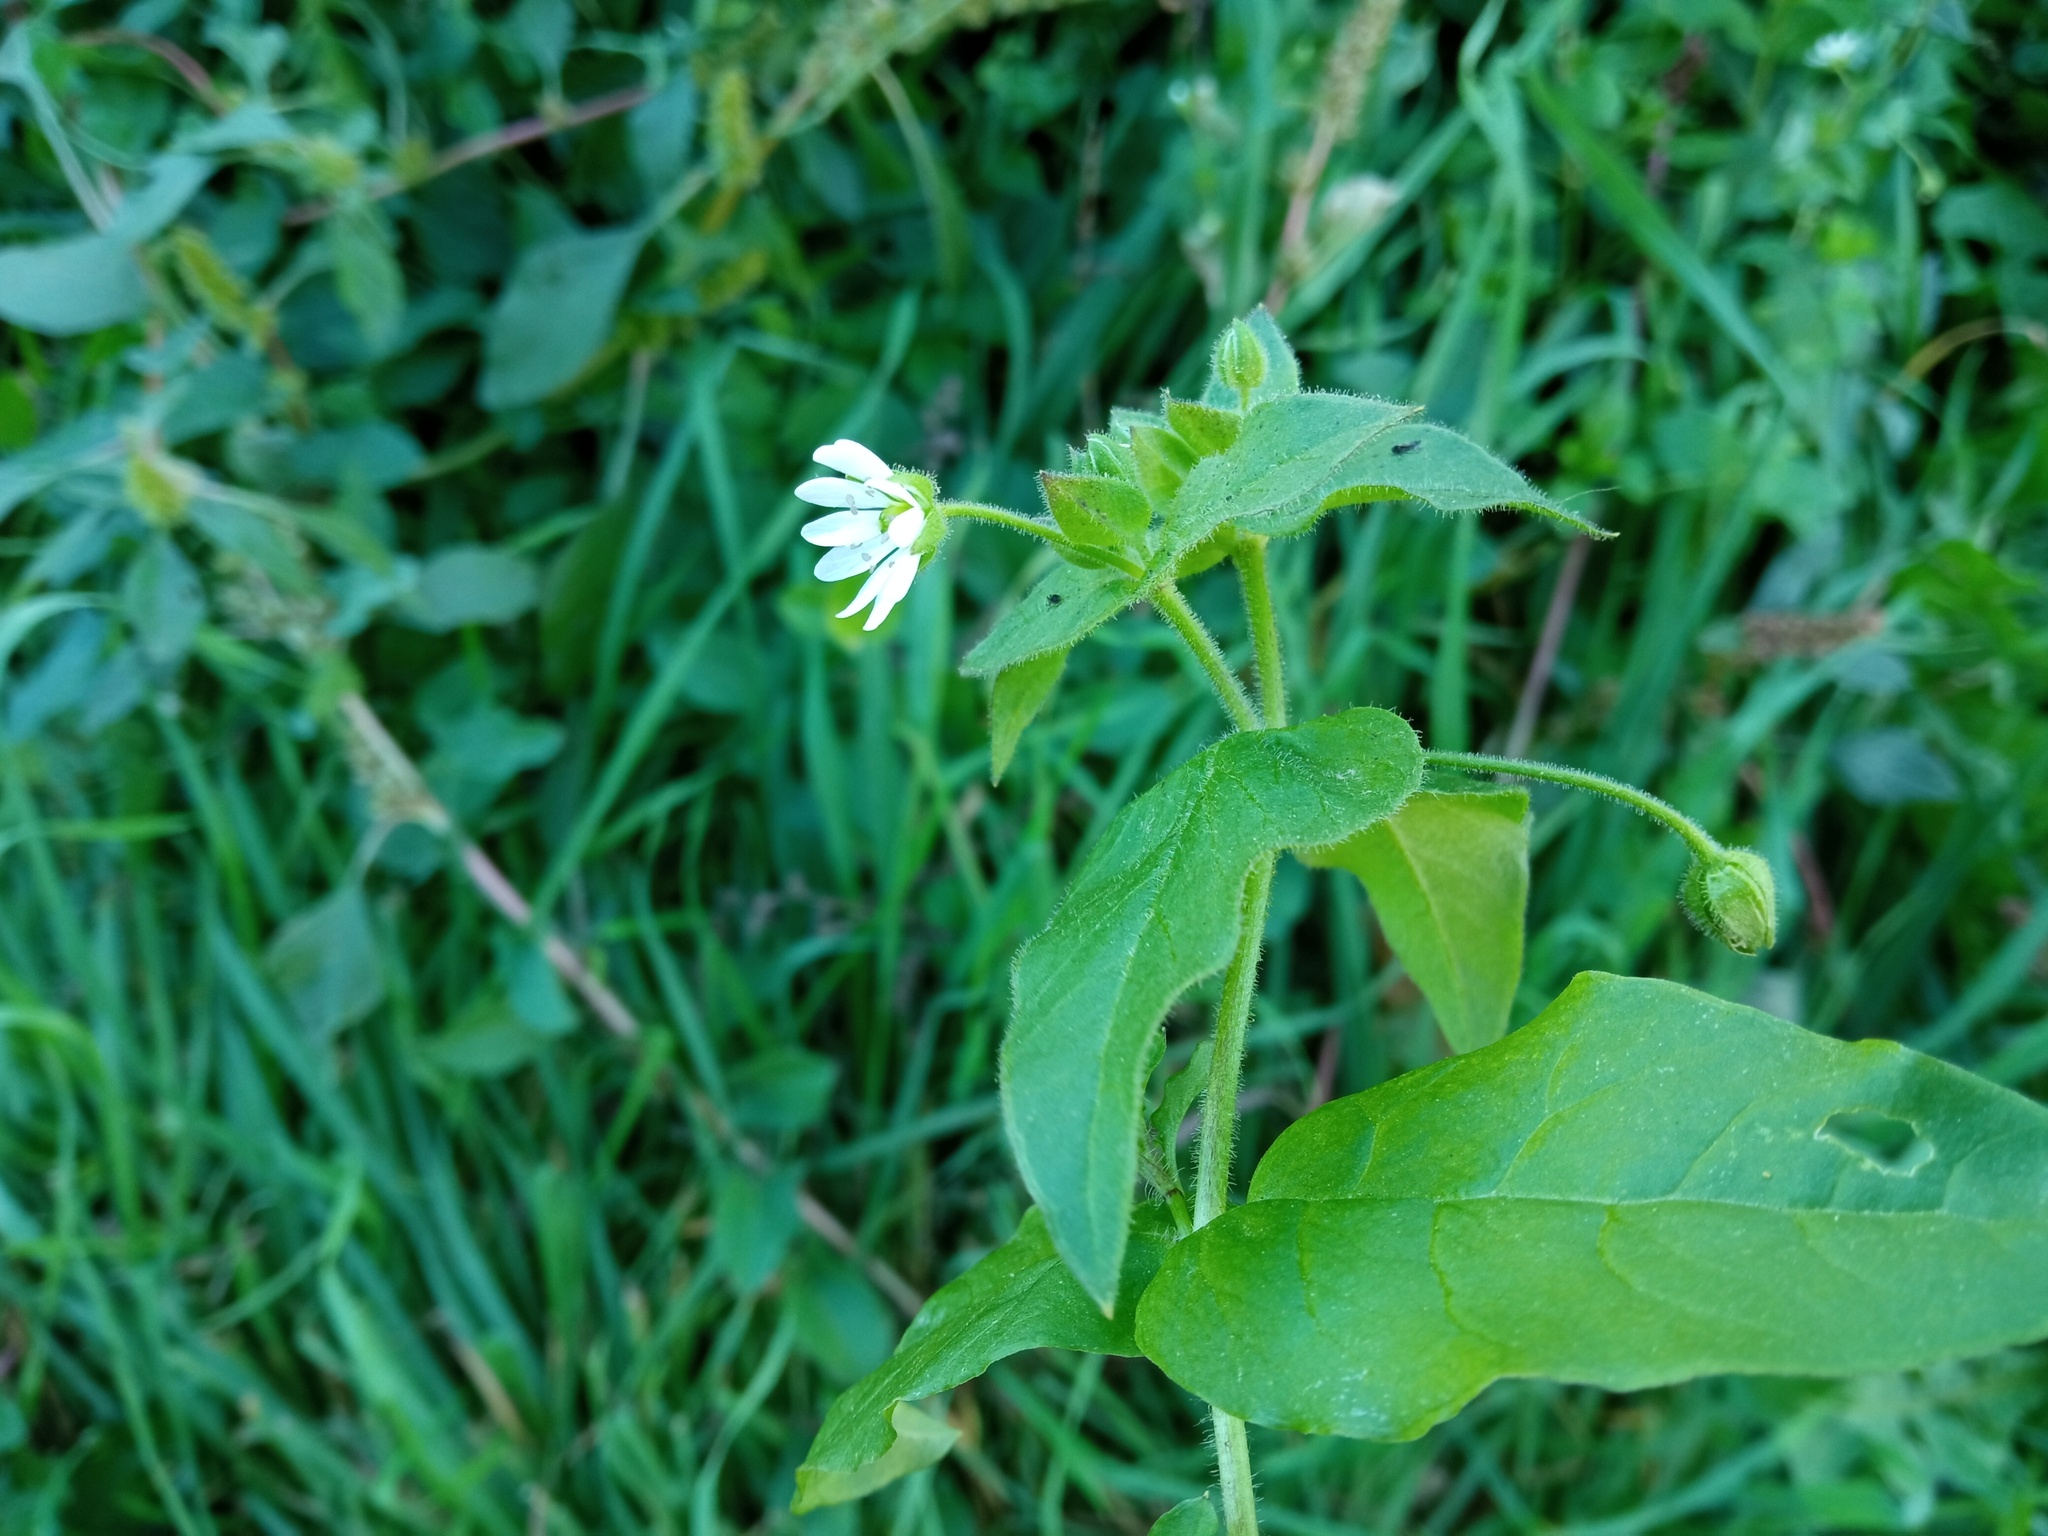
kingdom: Plantae
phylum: Tracheophyta
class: Magnoliopsida
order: Caryophyllales
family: Caryophyllaceae
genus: Stellaria
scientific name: Stellaria aquatica
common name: Water chickweed
